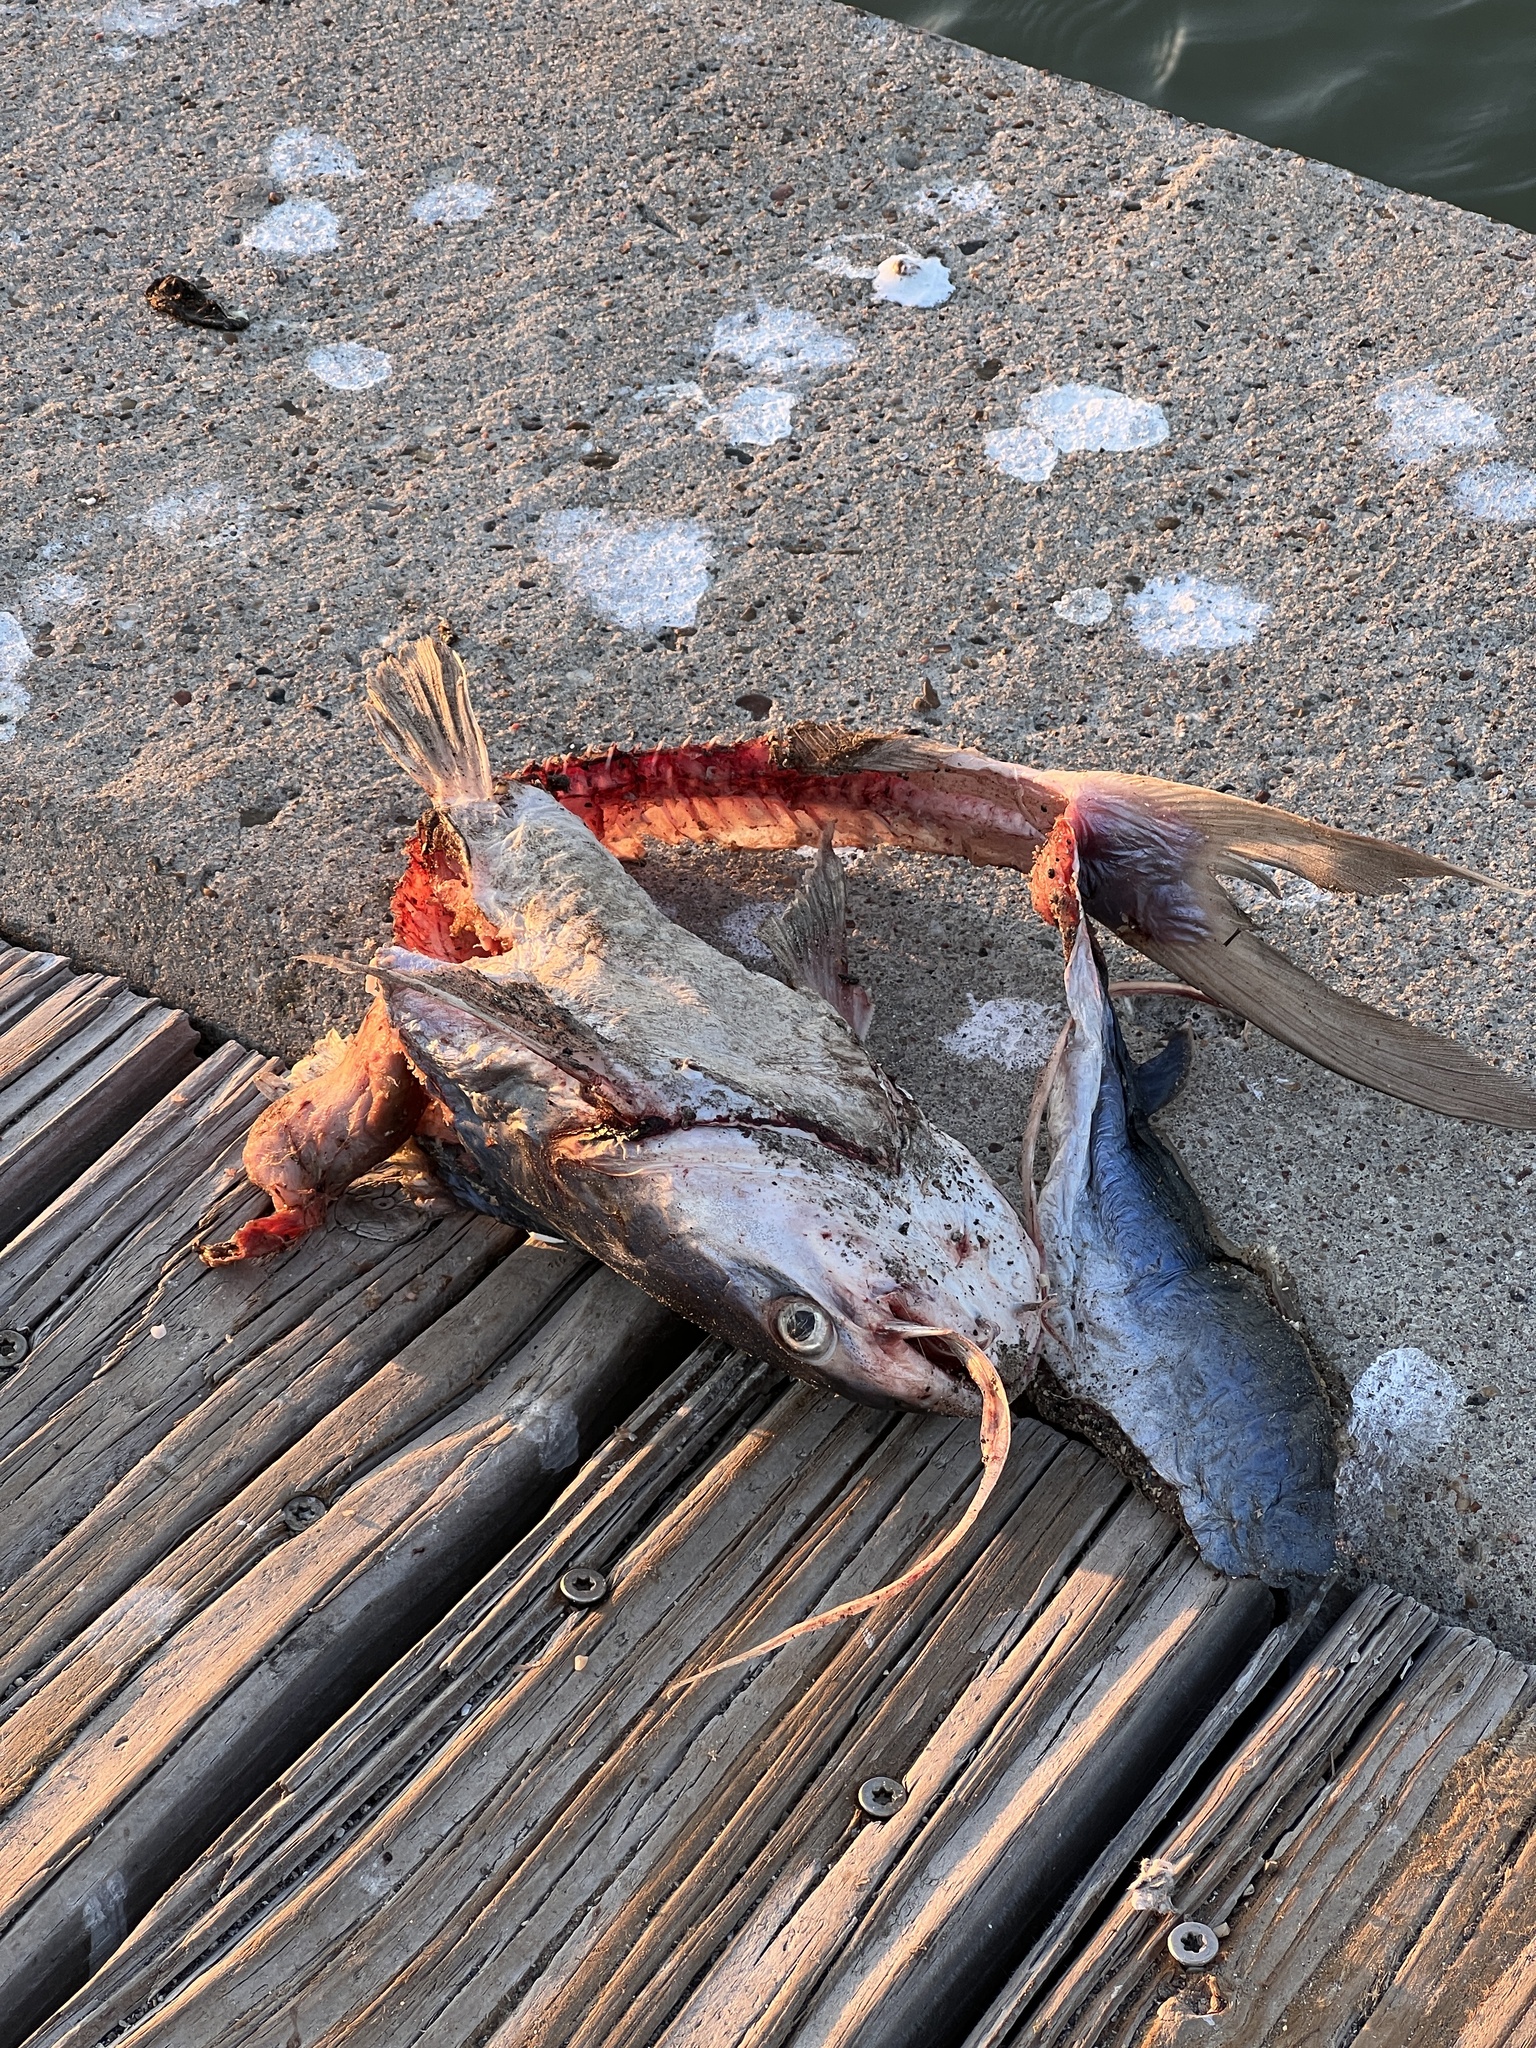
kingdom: Animalia
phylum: Chordata
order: Siluriformes
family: Ariidae
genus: Bagre
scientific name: Bagre marinus
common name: Gafftopsail sea catfish
